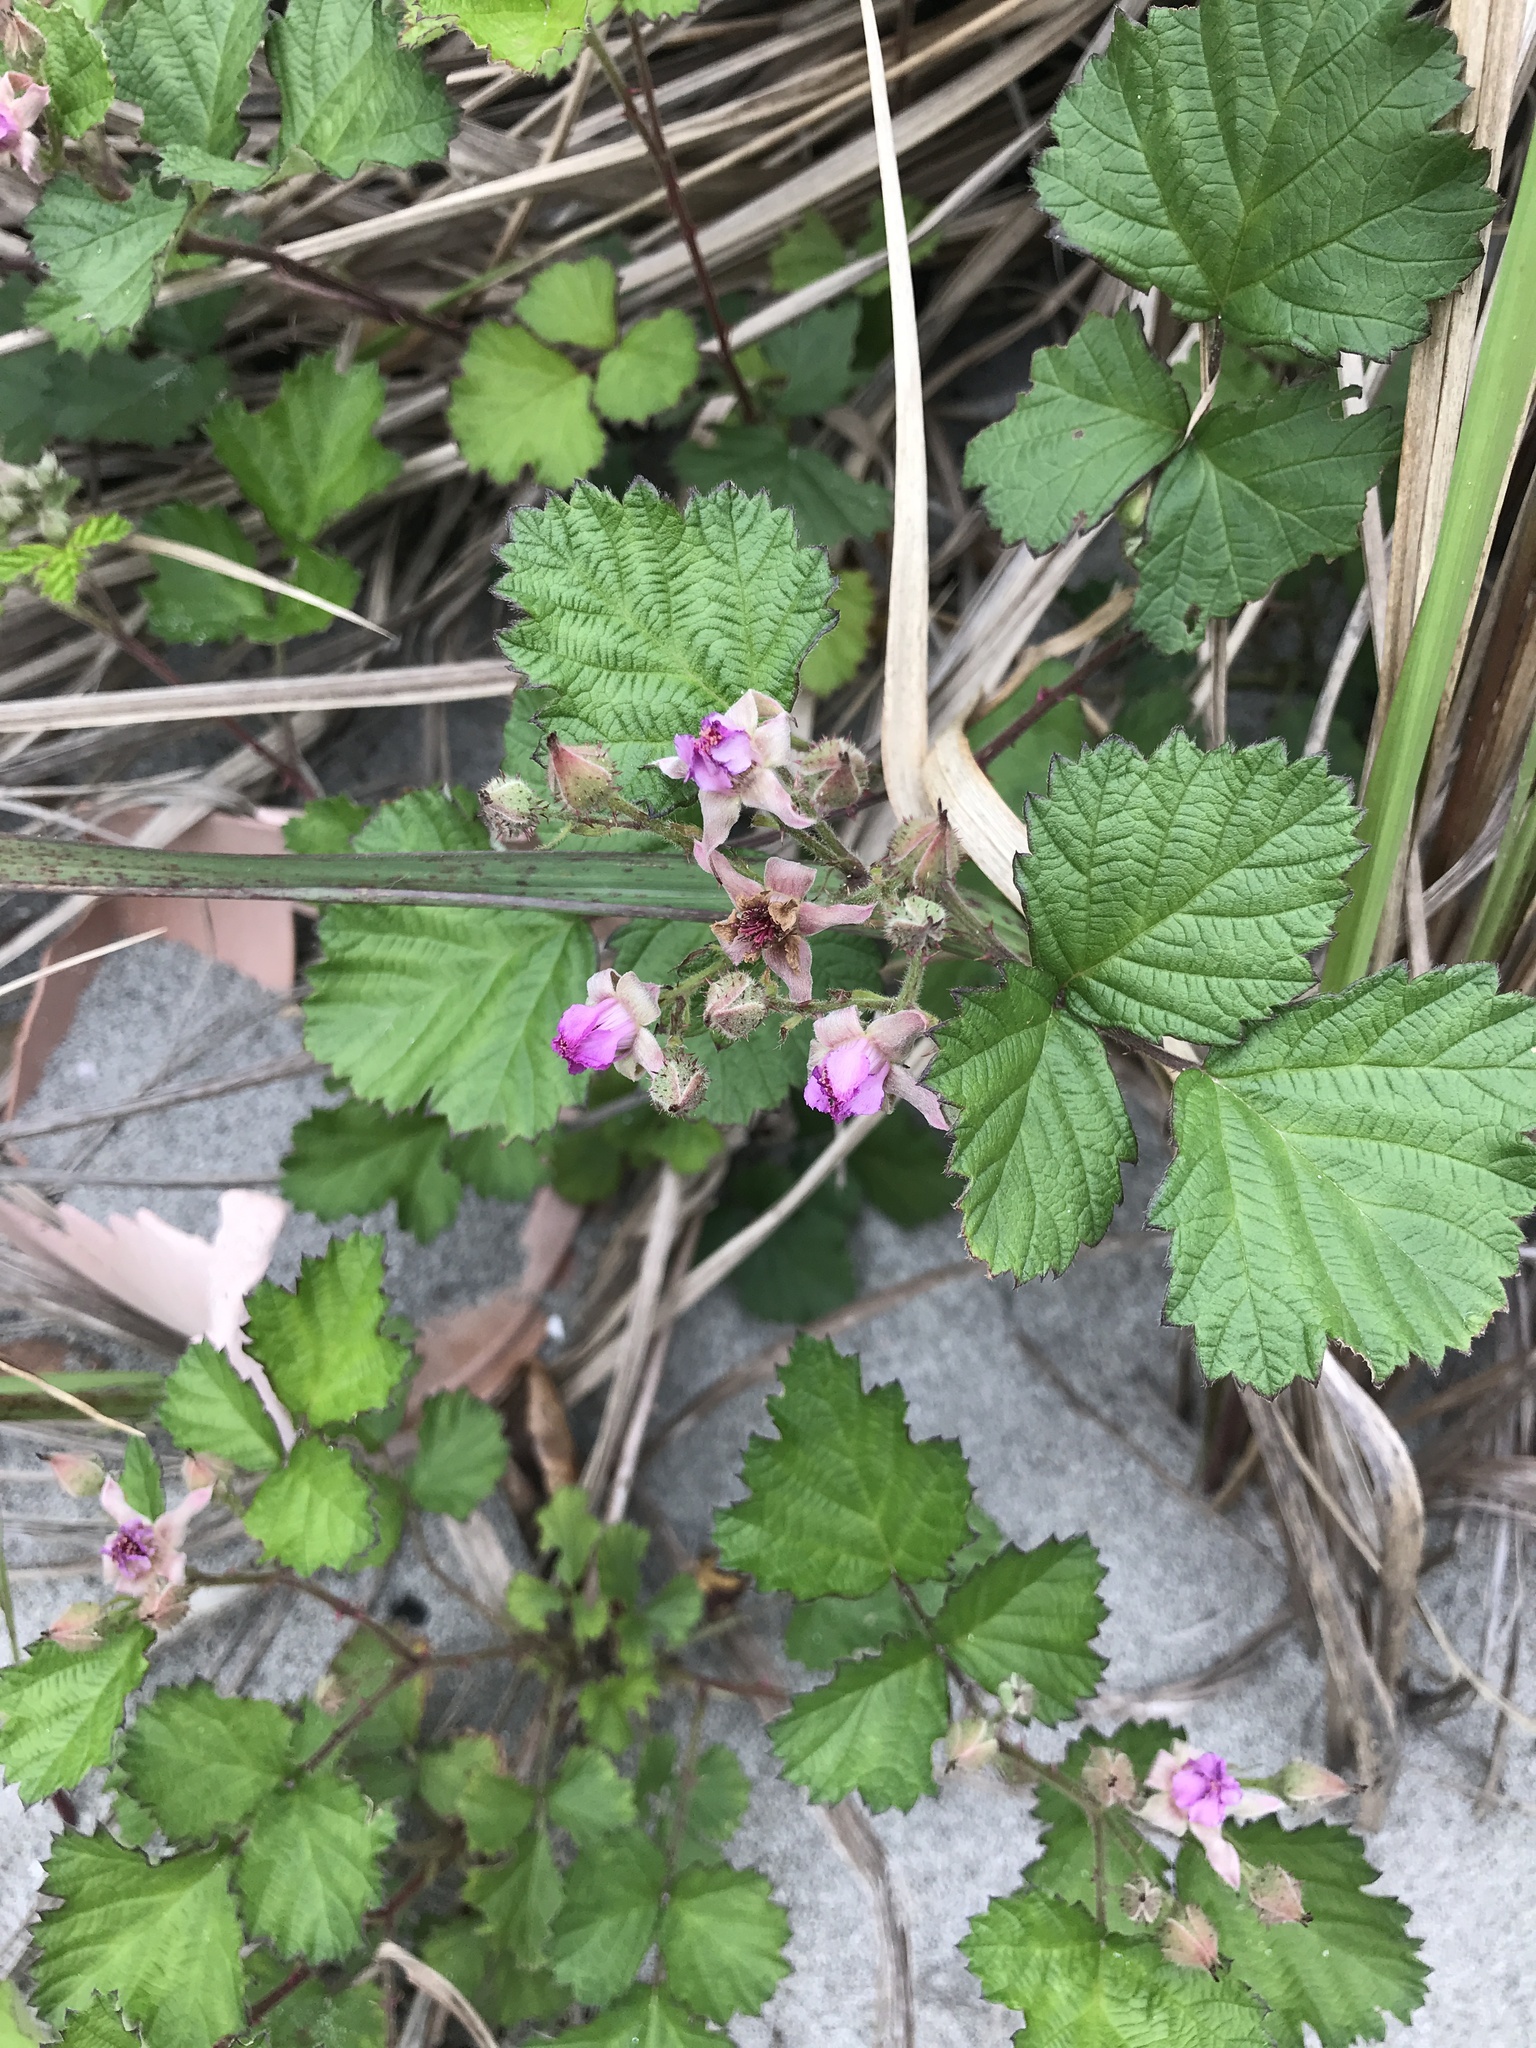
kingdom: Plantae
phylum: Tracheophyta
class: Magnoliopsida
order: Rosales
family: Rosaceae
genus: Rubus
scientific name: Rubus parvifolius
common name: Threeleaf blackberry
